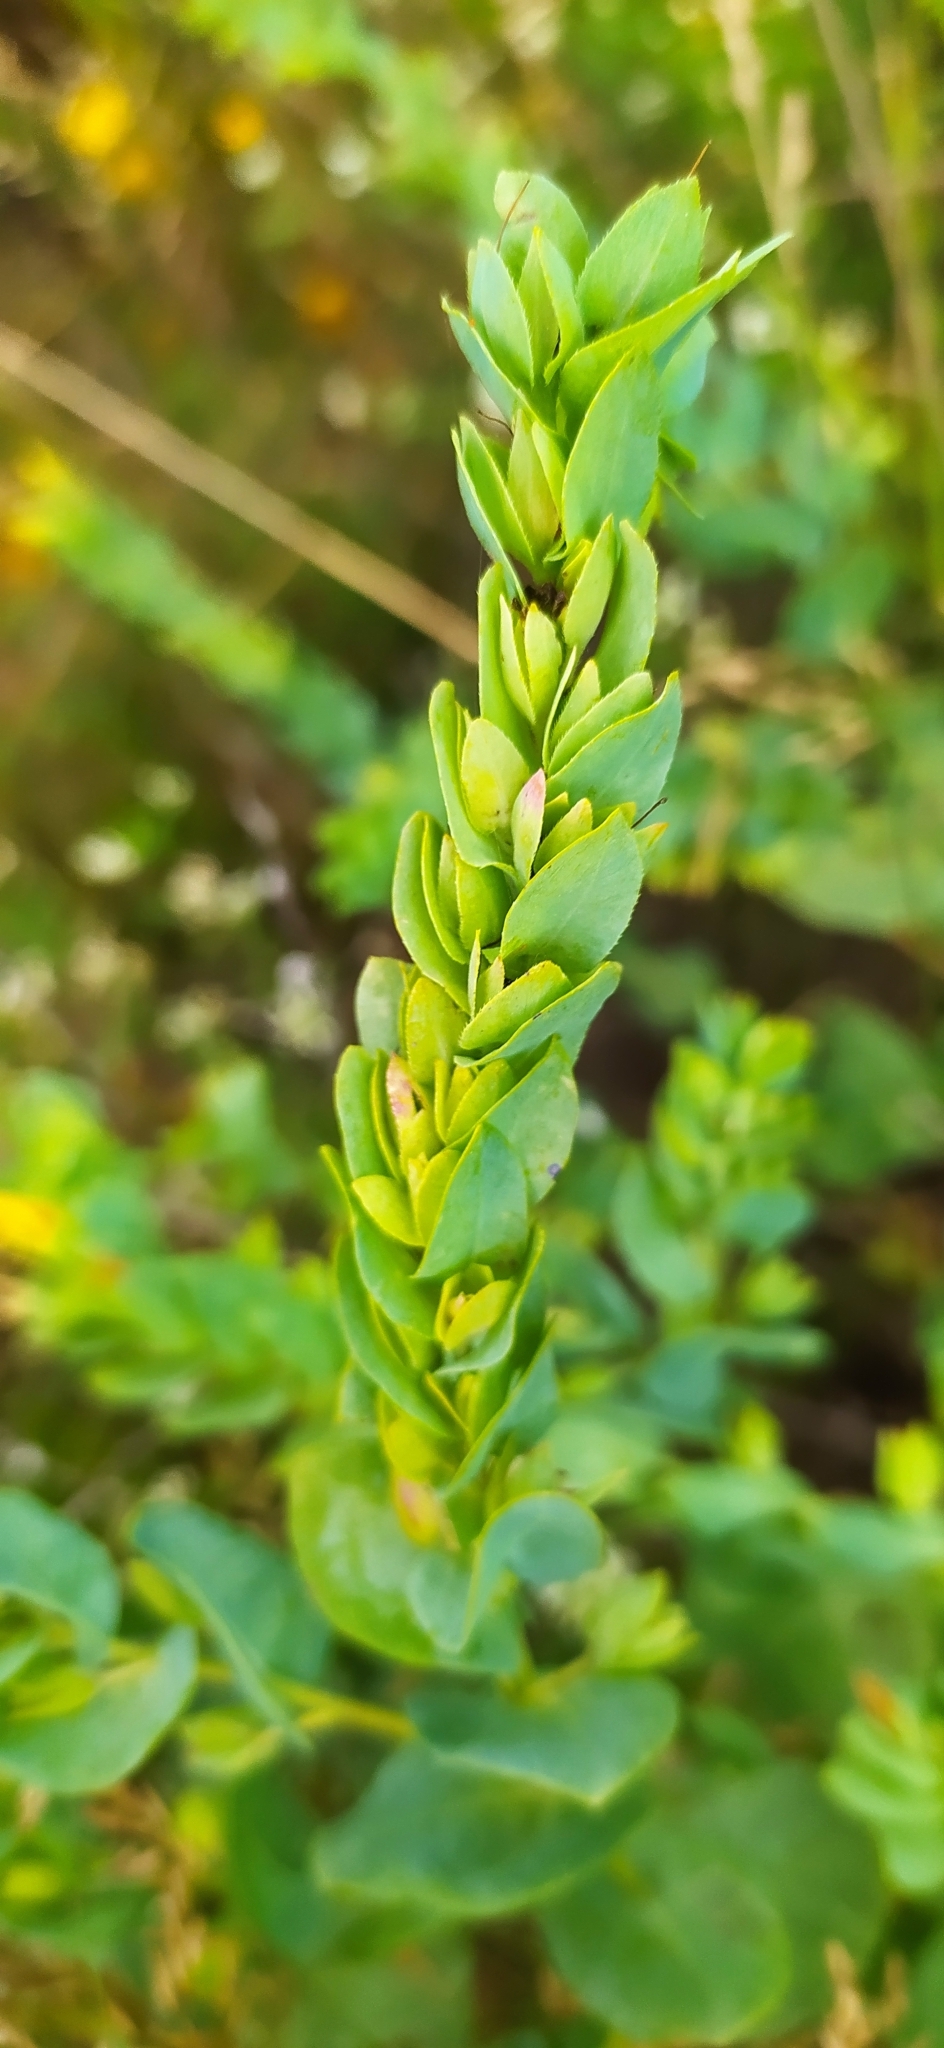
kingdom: Plantae
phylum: Tracheophyta
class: Magnoliopsida
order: Boraginales
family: Boraginaceae
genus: Cerinthe
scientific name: Cerinthe minor
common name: Lesser honeywort
